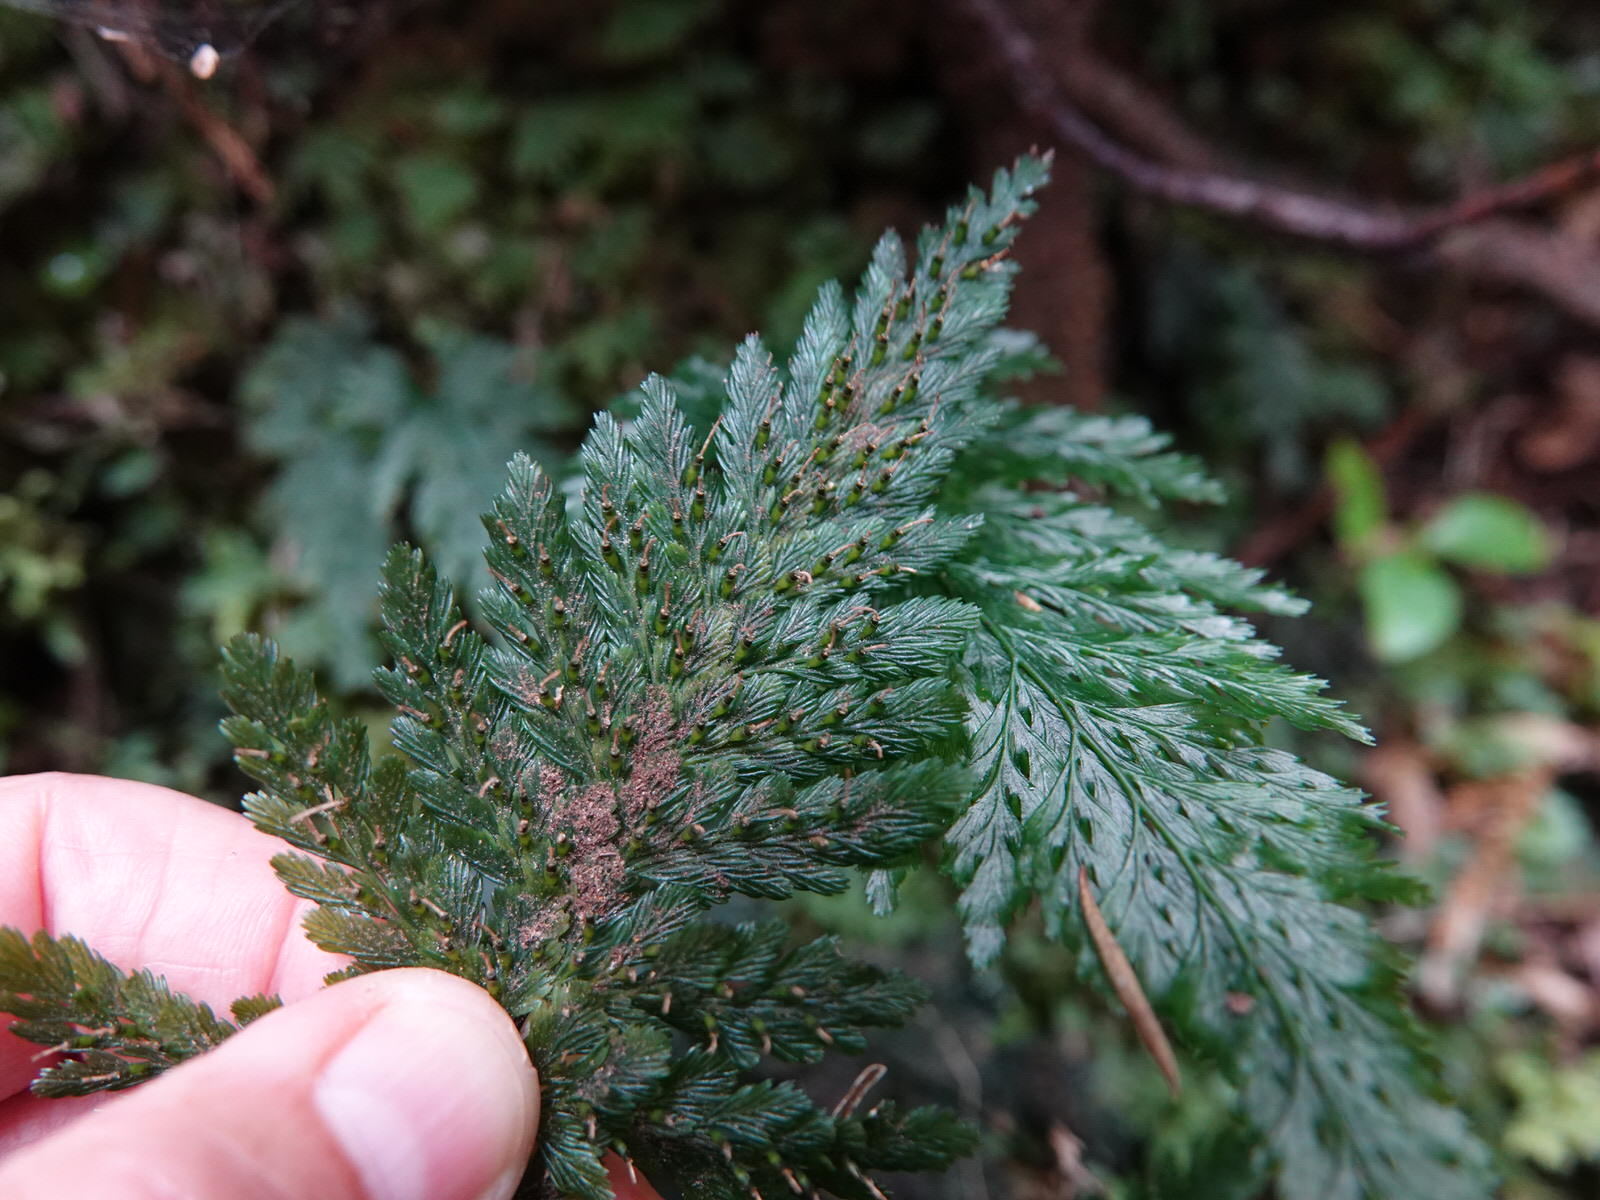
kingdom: Plantae
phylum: Tracheophyta
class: Polypodiopsida
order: Hymenophyllales
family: Hymenophyllaceae
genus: Abrodictyum
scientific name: Abrodictyum elongatum
